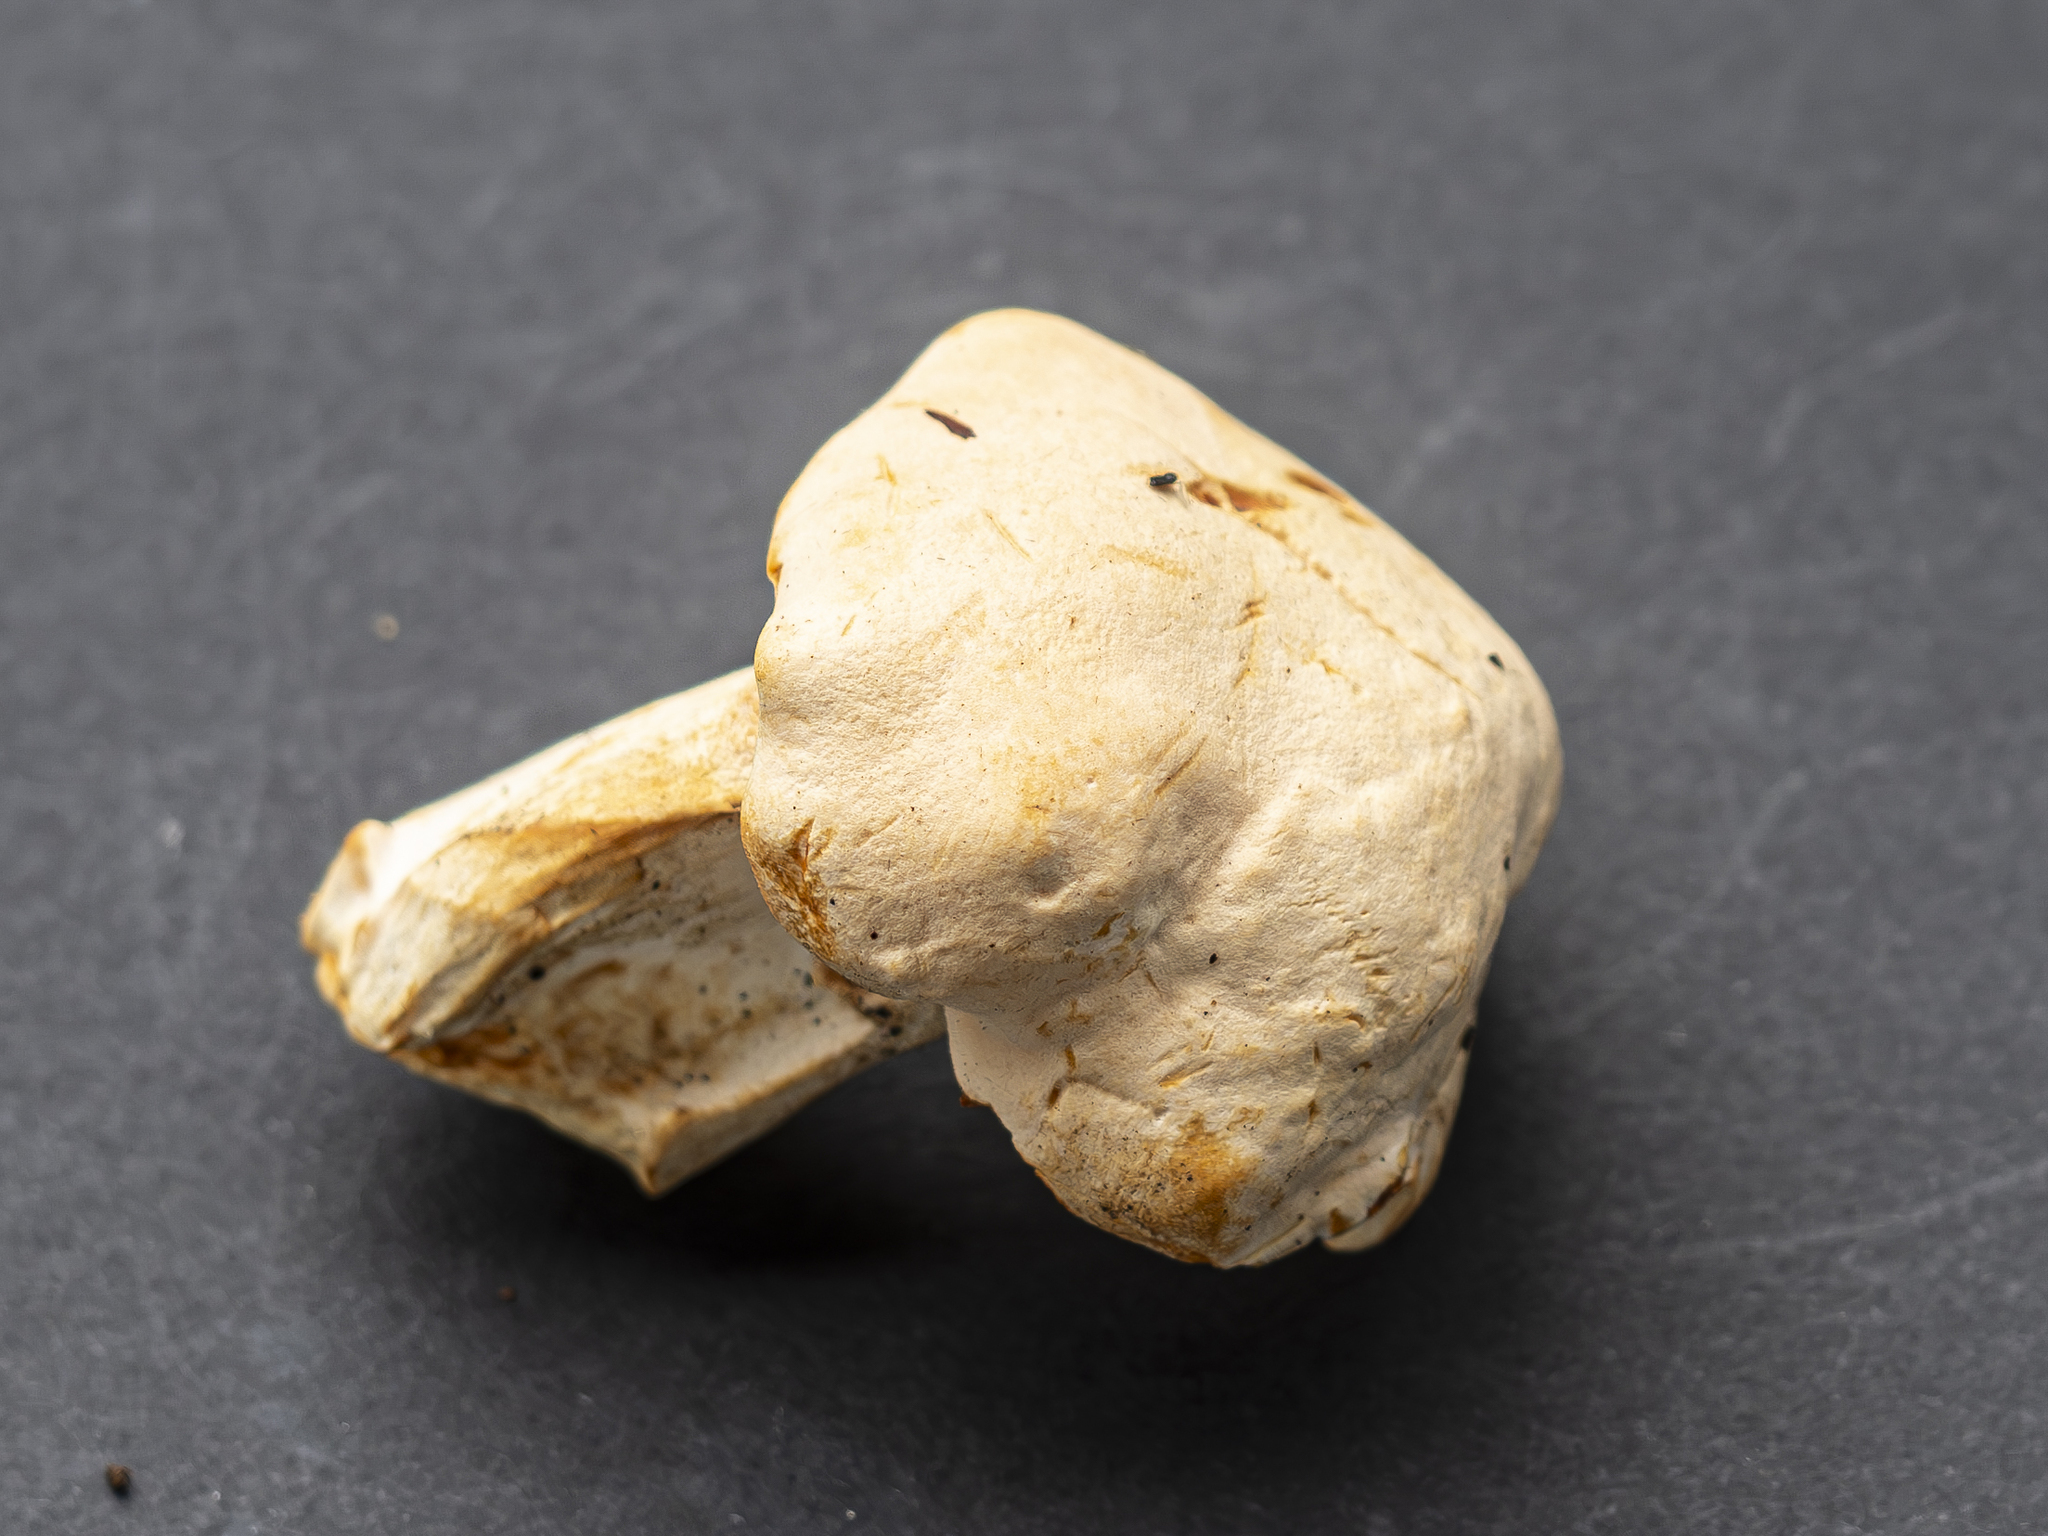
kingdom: Fungi
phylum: Basidiomycota
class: Agaricomycetes
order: Cantharellales
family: Hydnaceae
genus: Hydnum
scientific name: Hydnum repandum
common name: Wood hedgehog
